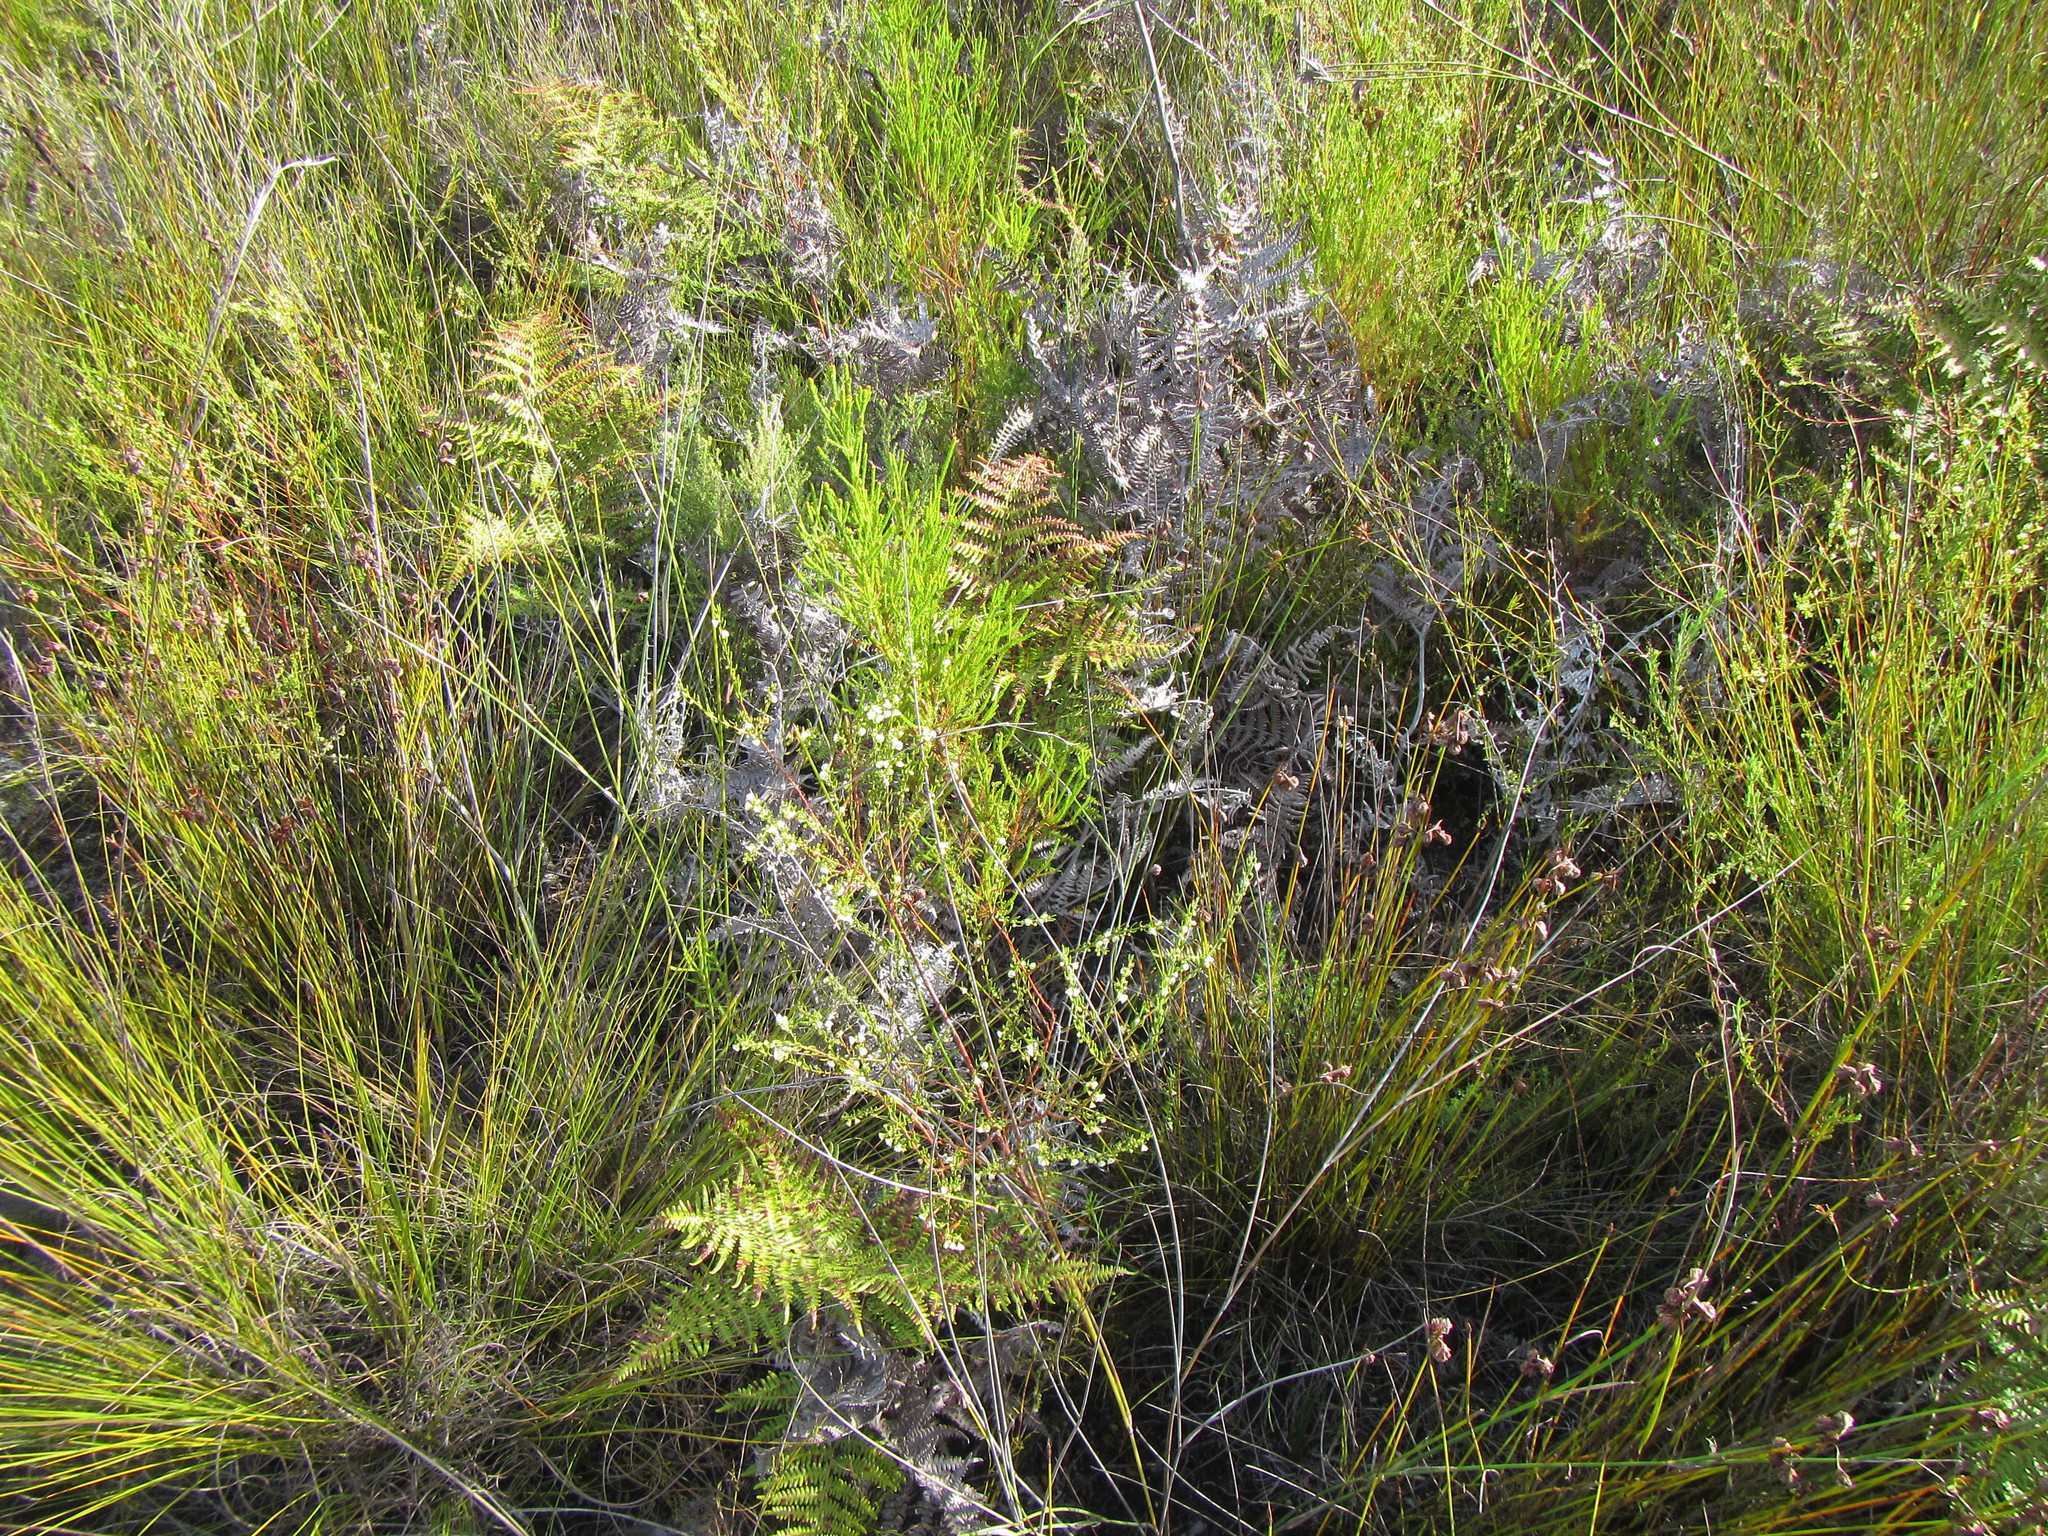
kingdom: Plantae
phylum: Tracheophyta
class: Magnoliopsida
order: Malpighiales
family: Peraceae
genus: Clutia
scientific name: Clutia ericoides
